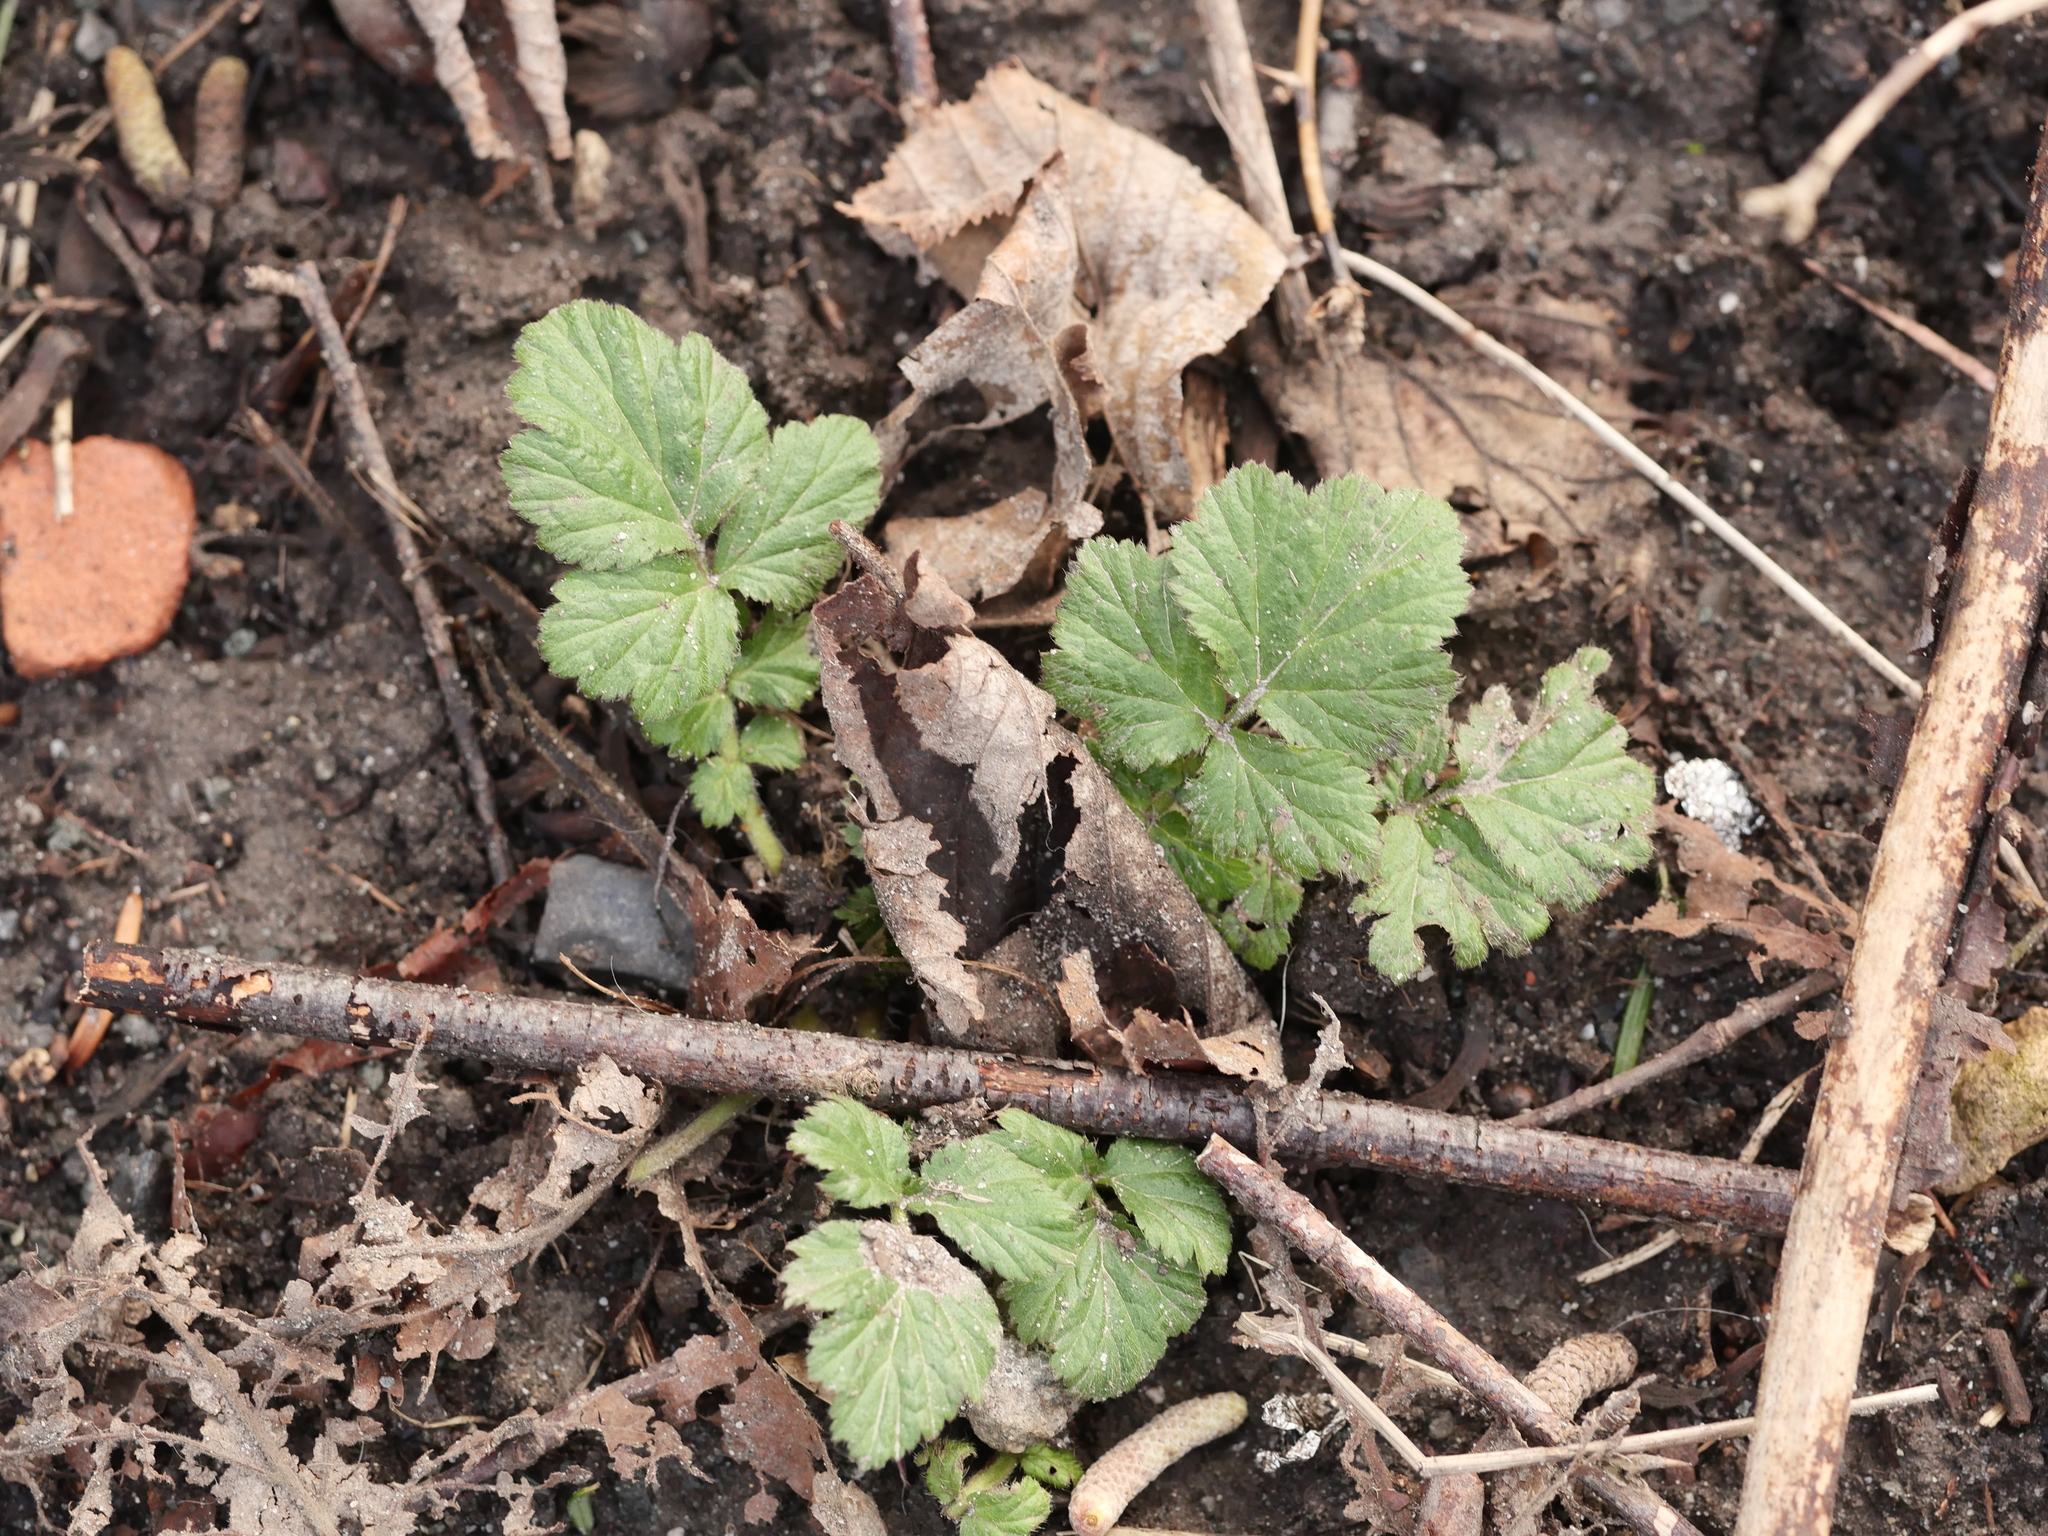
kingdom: Plantae
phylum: Tracheophyta
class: Magnoliopsida
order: Rosales
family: Rosaceae
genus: Geum
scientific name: Geum urbanum
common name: Wood avens
